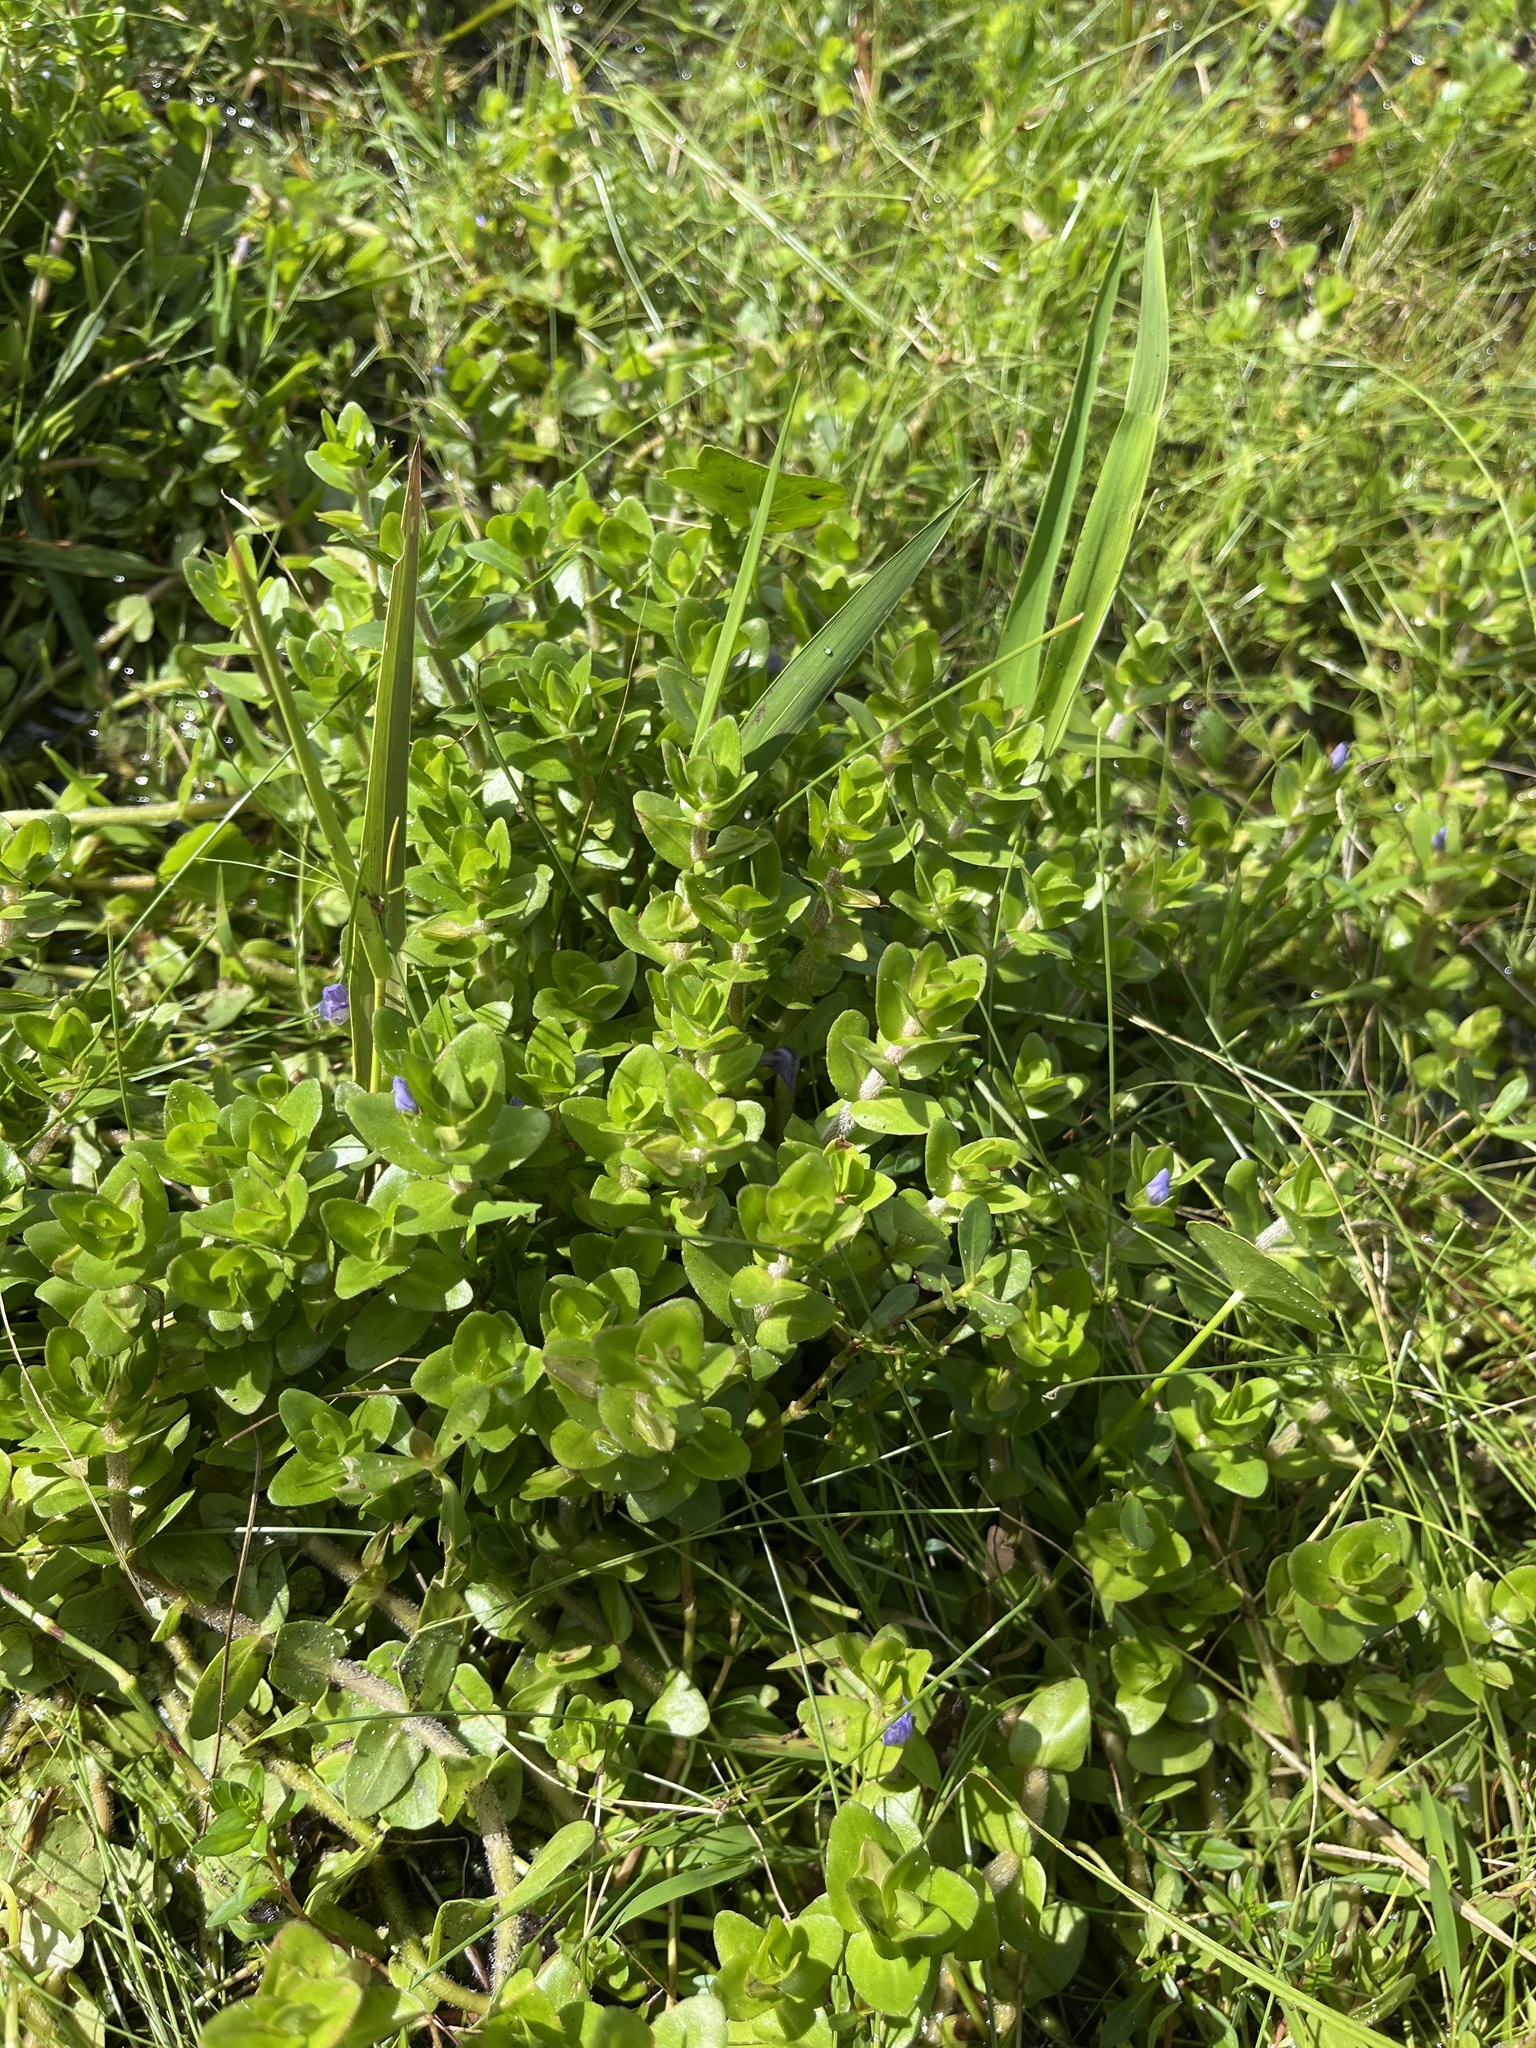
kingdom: Plantae
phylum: Tracheophyta
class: Magnoliopsida
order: Lamiales
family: Plantaginaceae
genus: Bacopa
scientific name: Bacopa caroliniana
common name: Lemon bacopa
